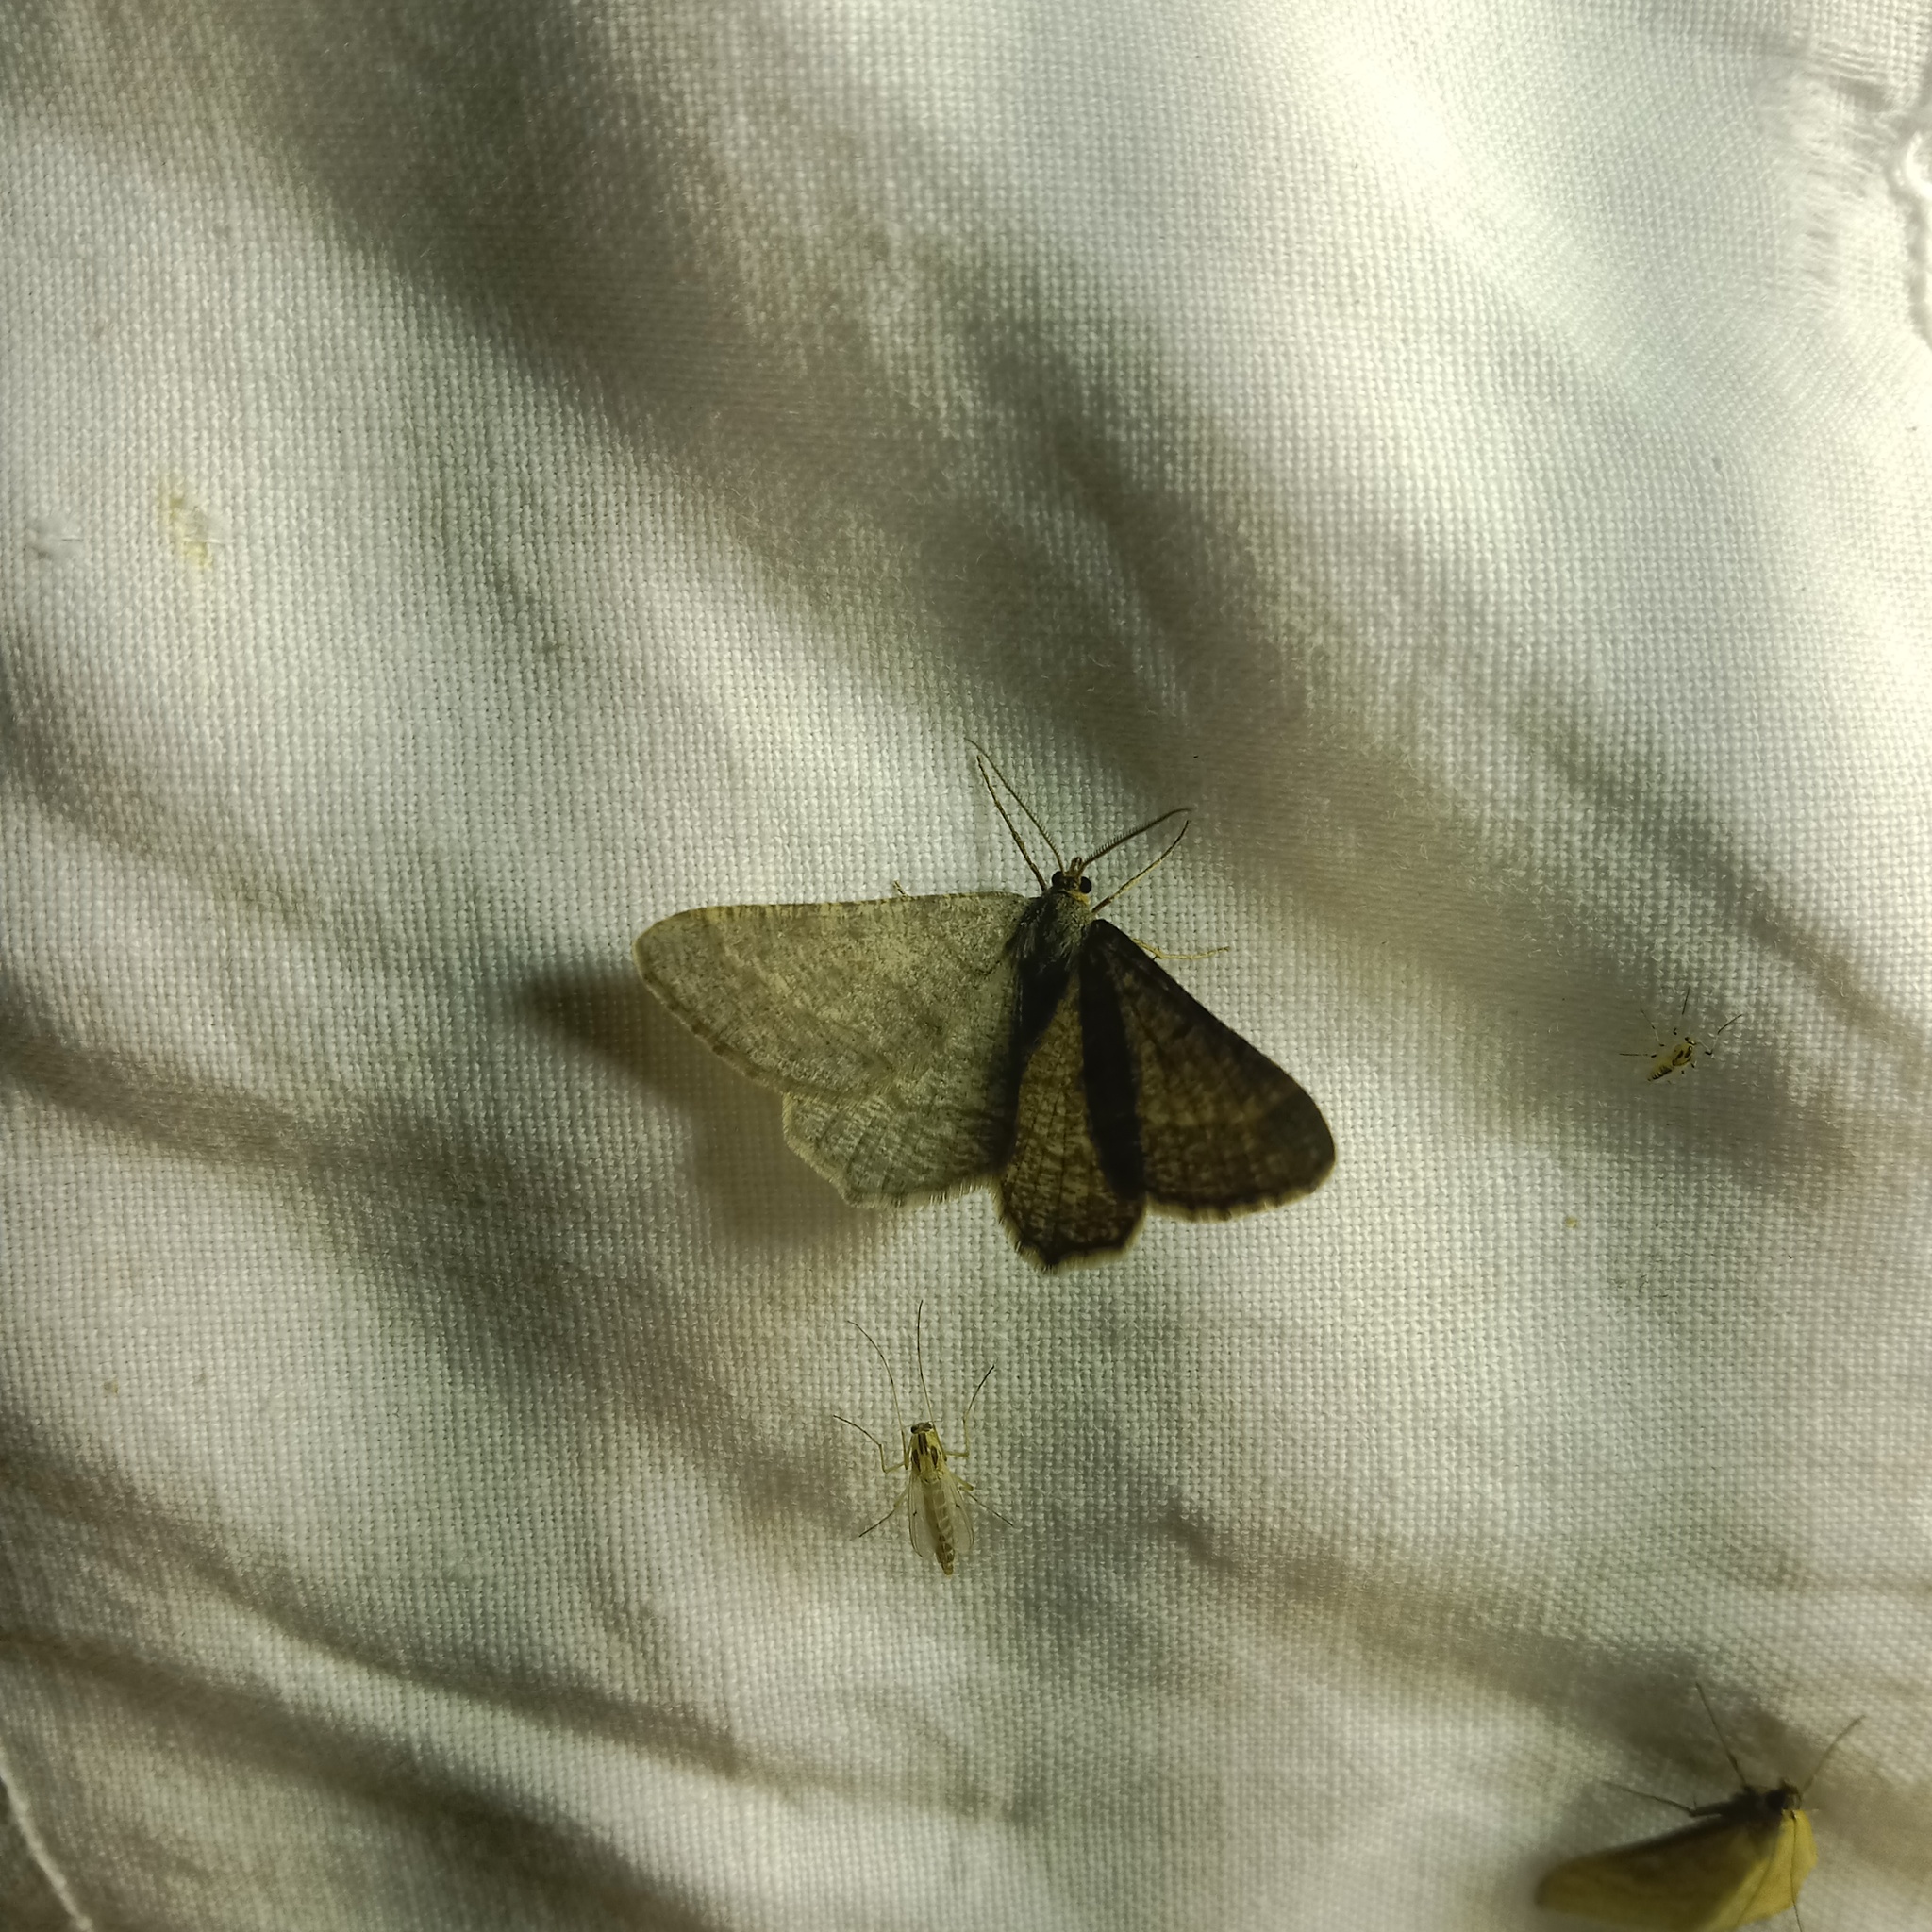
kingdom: Animalia
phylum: Arthropoda
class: Insecta
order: Lepidoptera
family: Geometridae
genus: Tephrina
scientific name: Tephrina murinaria
